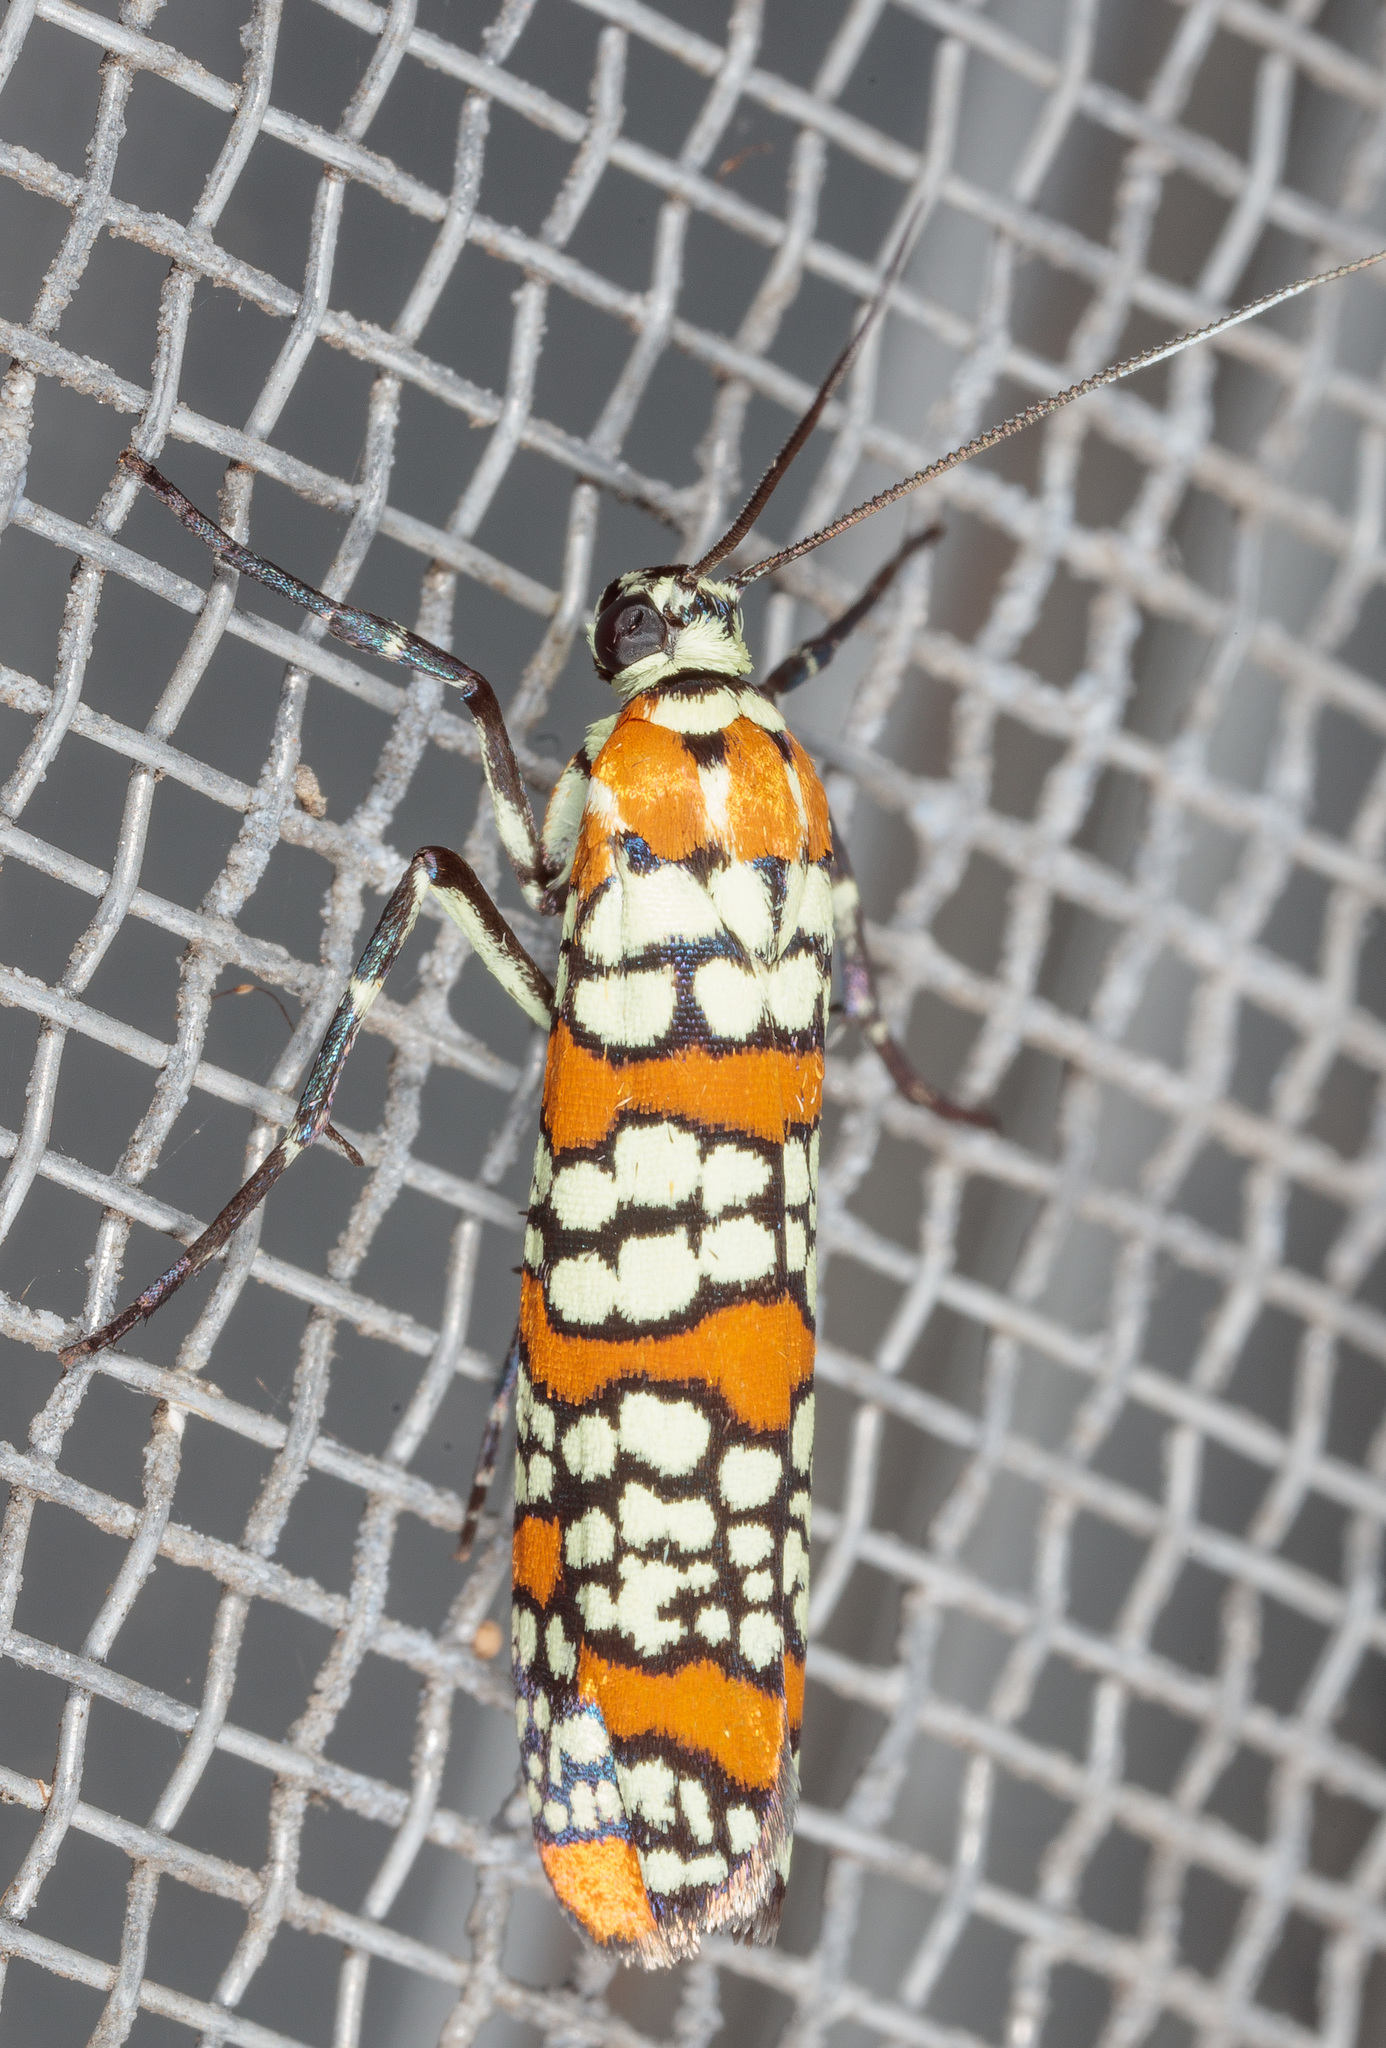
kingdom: Animalia
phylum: Arthropoda
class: Insecta
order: Lepidoptera
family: Attevidae
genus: Atteva
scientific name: Atteva punctella
